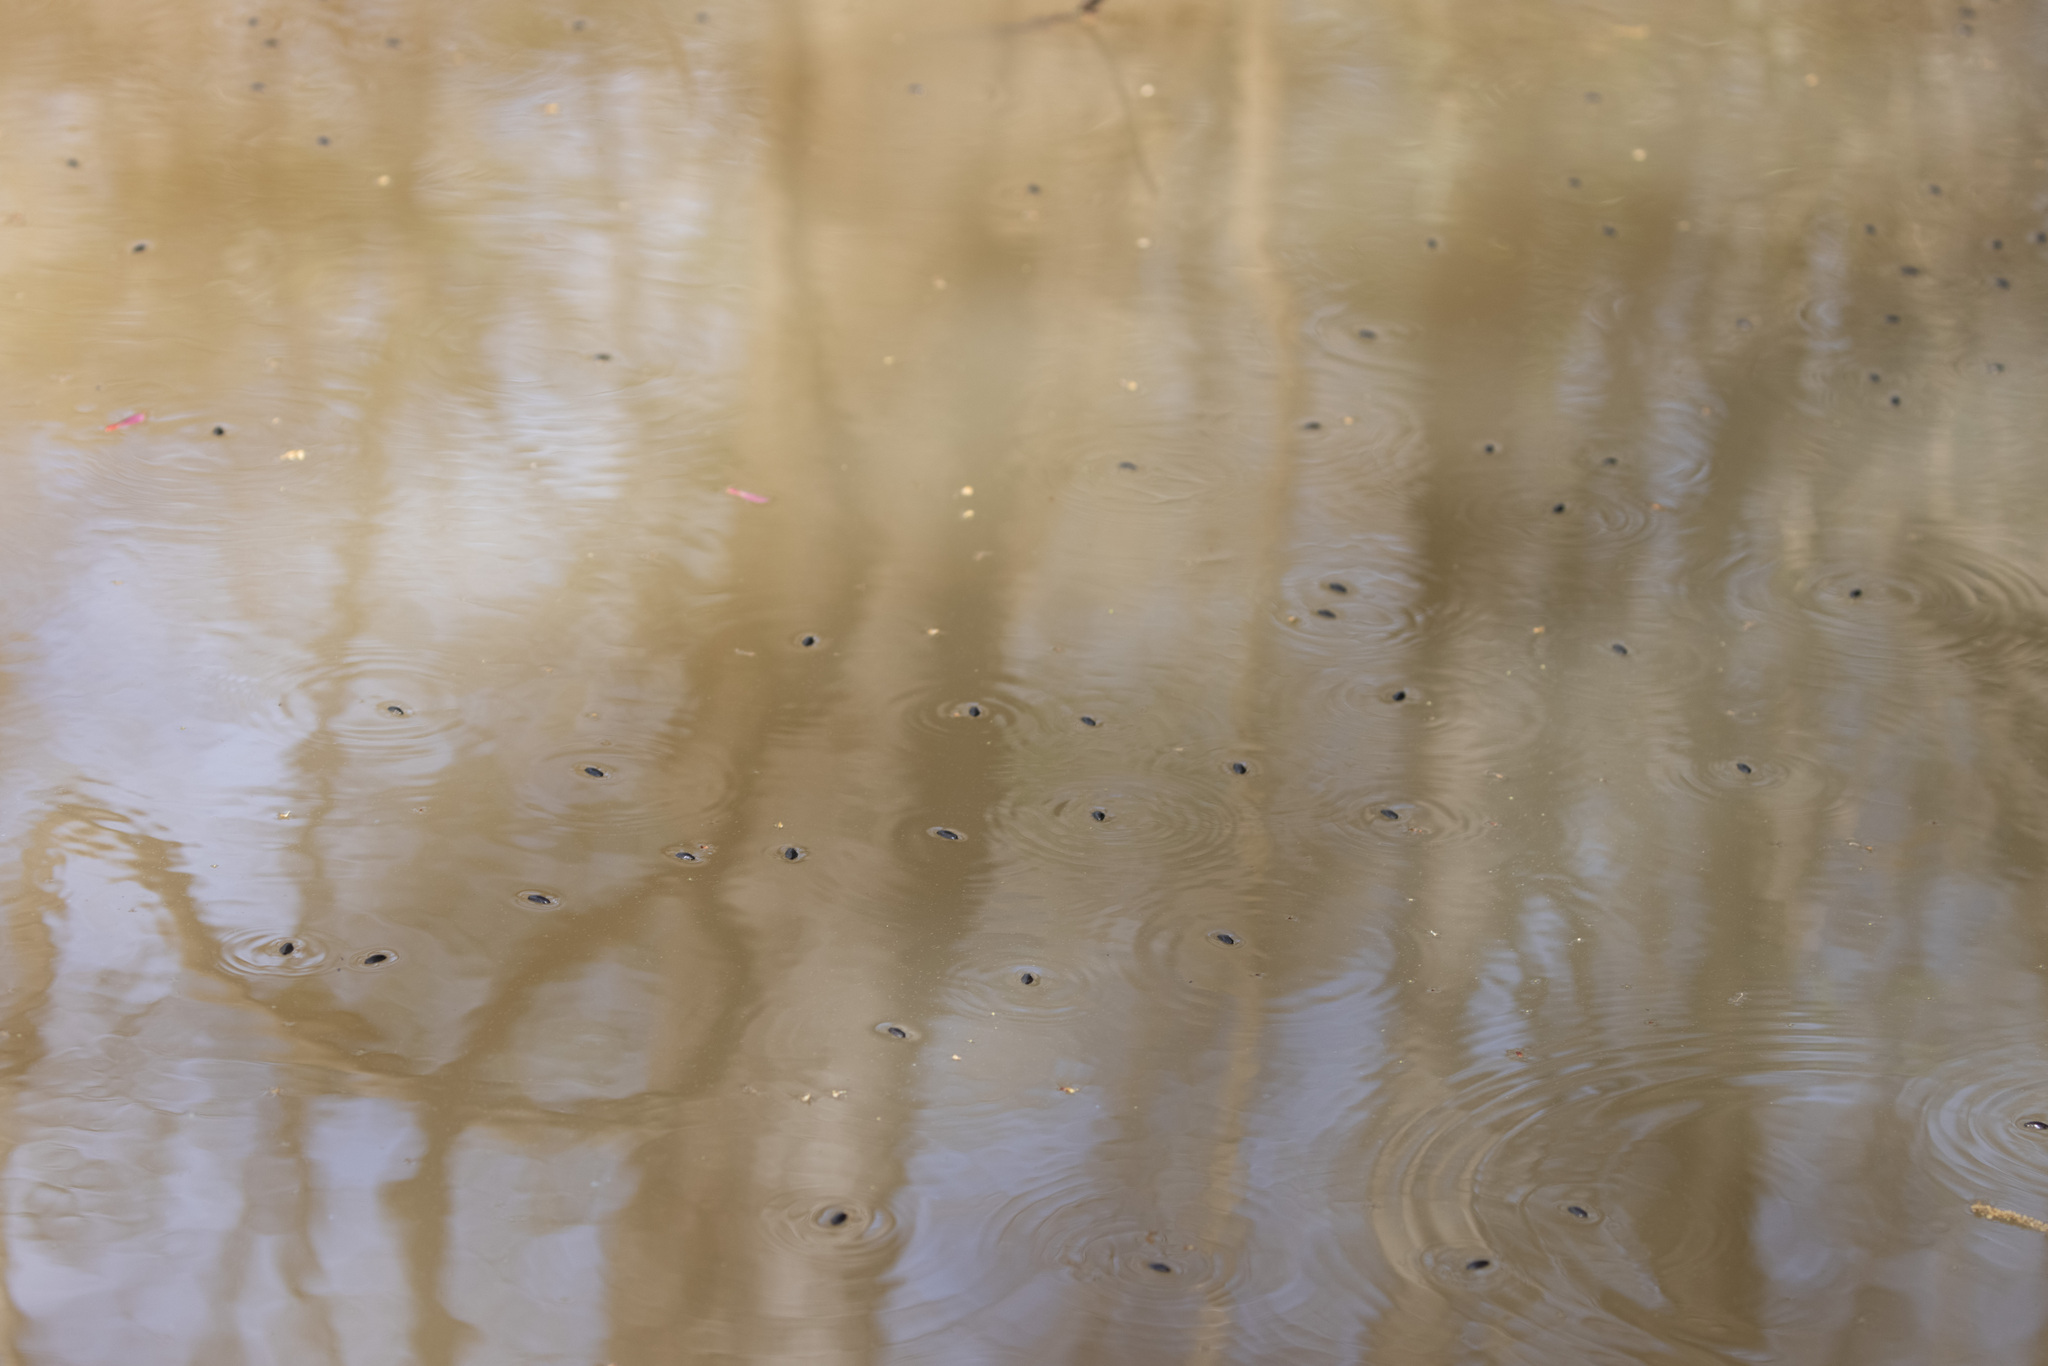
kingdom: Animalia
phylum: Arthropoda
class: Insecta
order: Coleoptera
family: Gyrinidae
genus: Dineutus
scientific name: Dineutus
